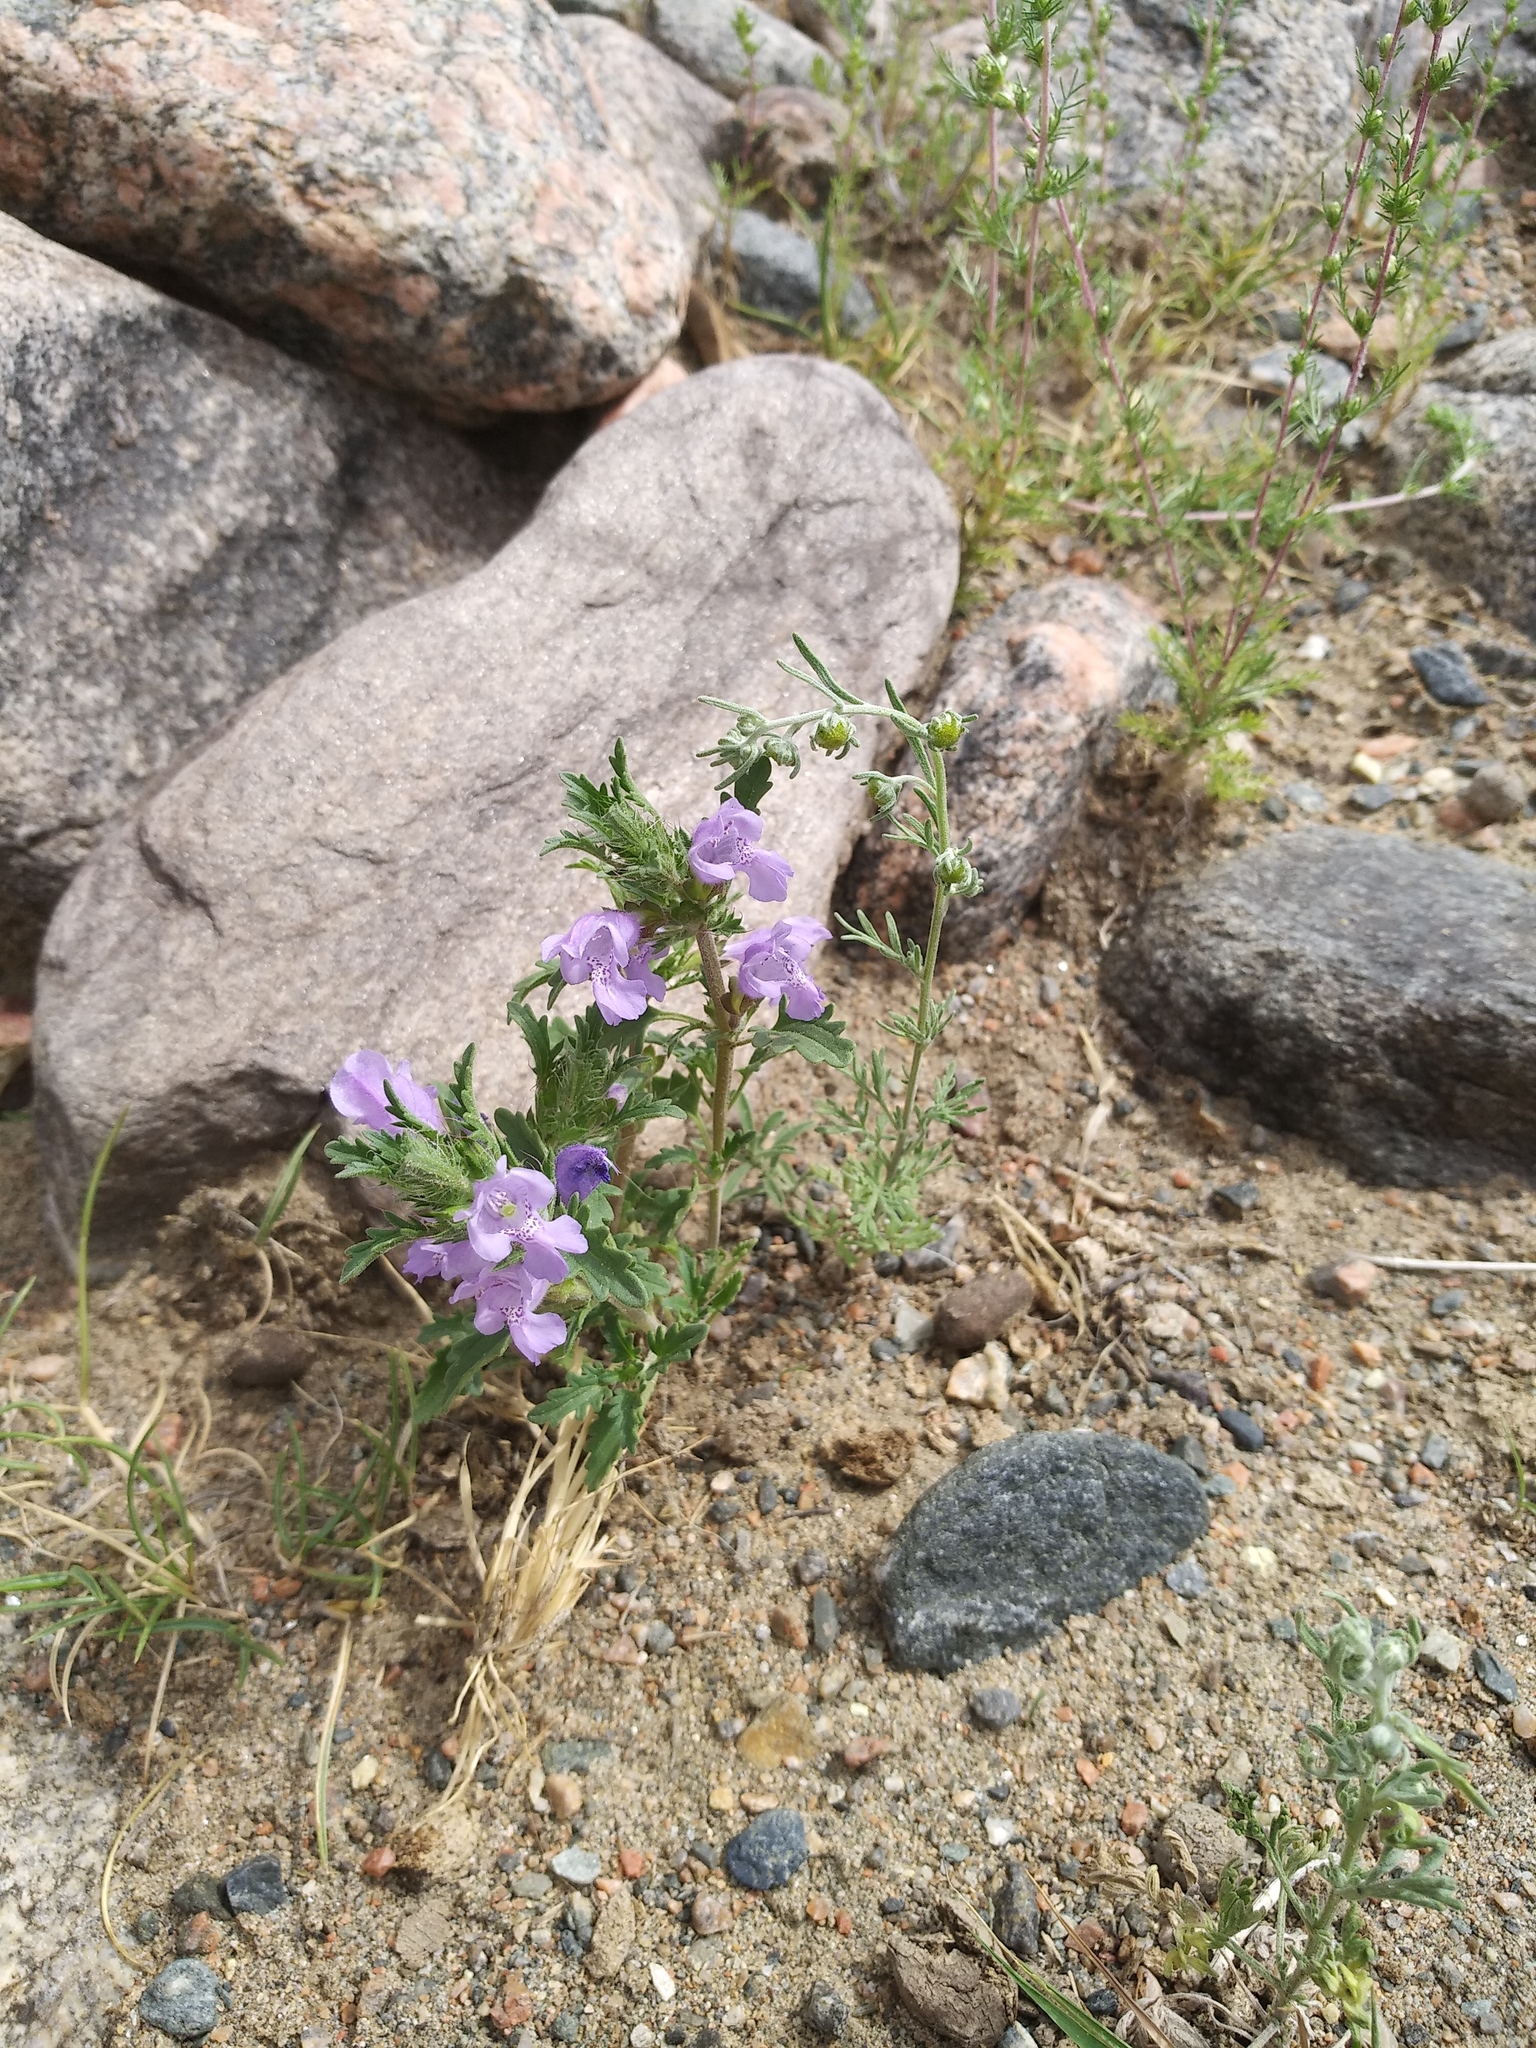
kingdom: Plantae
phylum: Tracheophyta
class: Magnoliopsida
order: Lamiales
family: Lamiaceae
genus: Dracocephalum
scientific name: Dracocephalum foetidum
